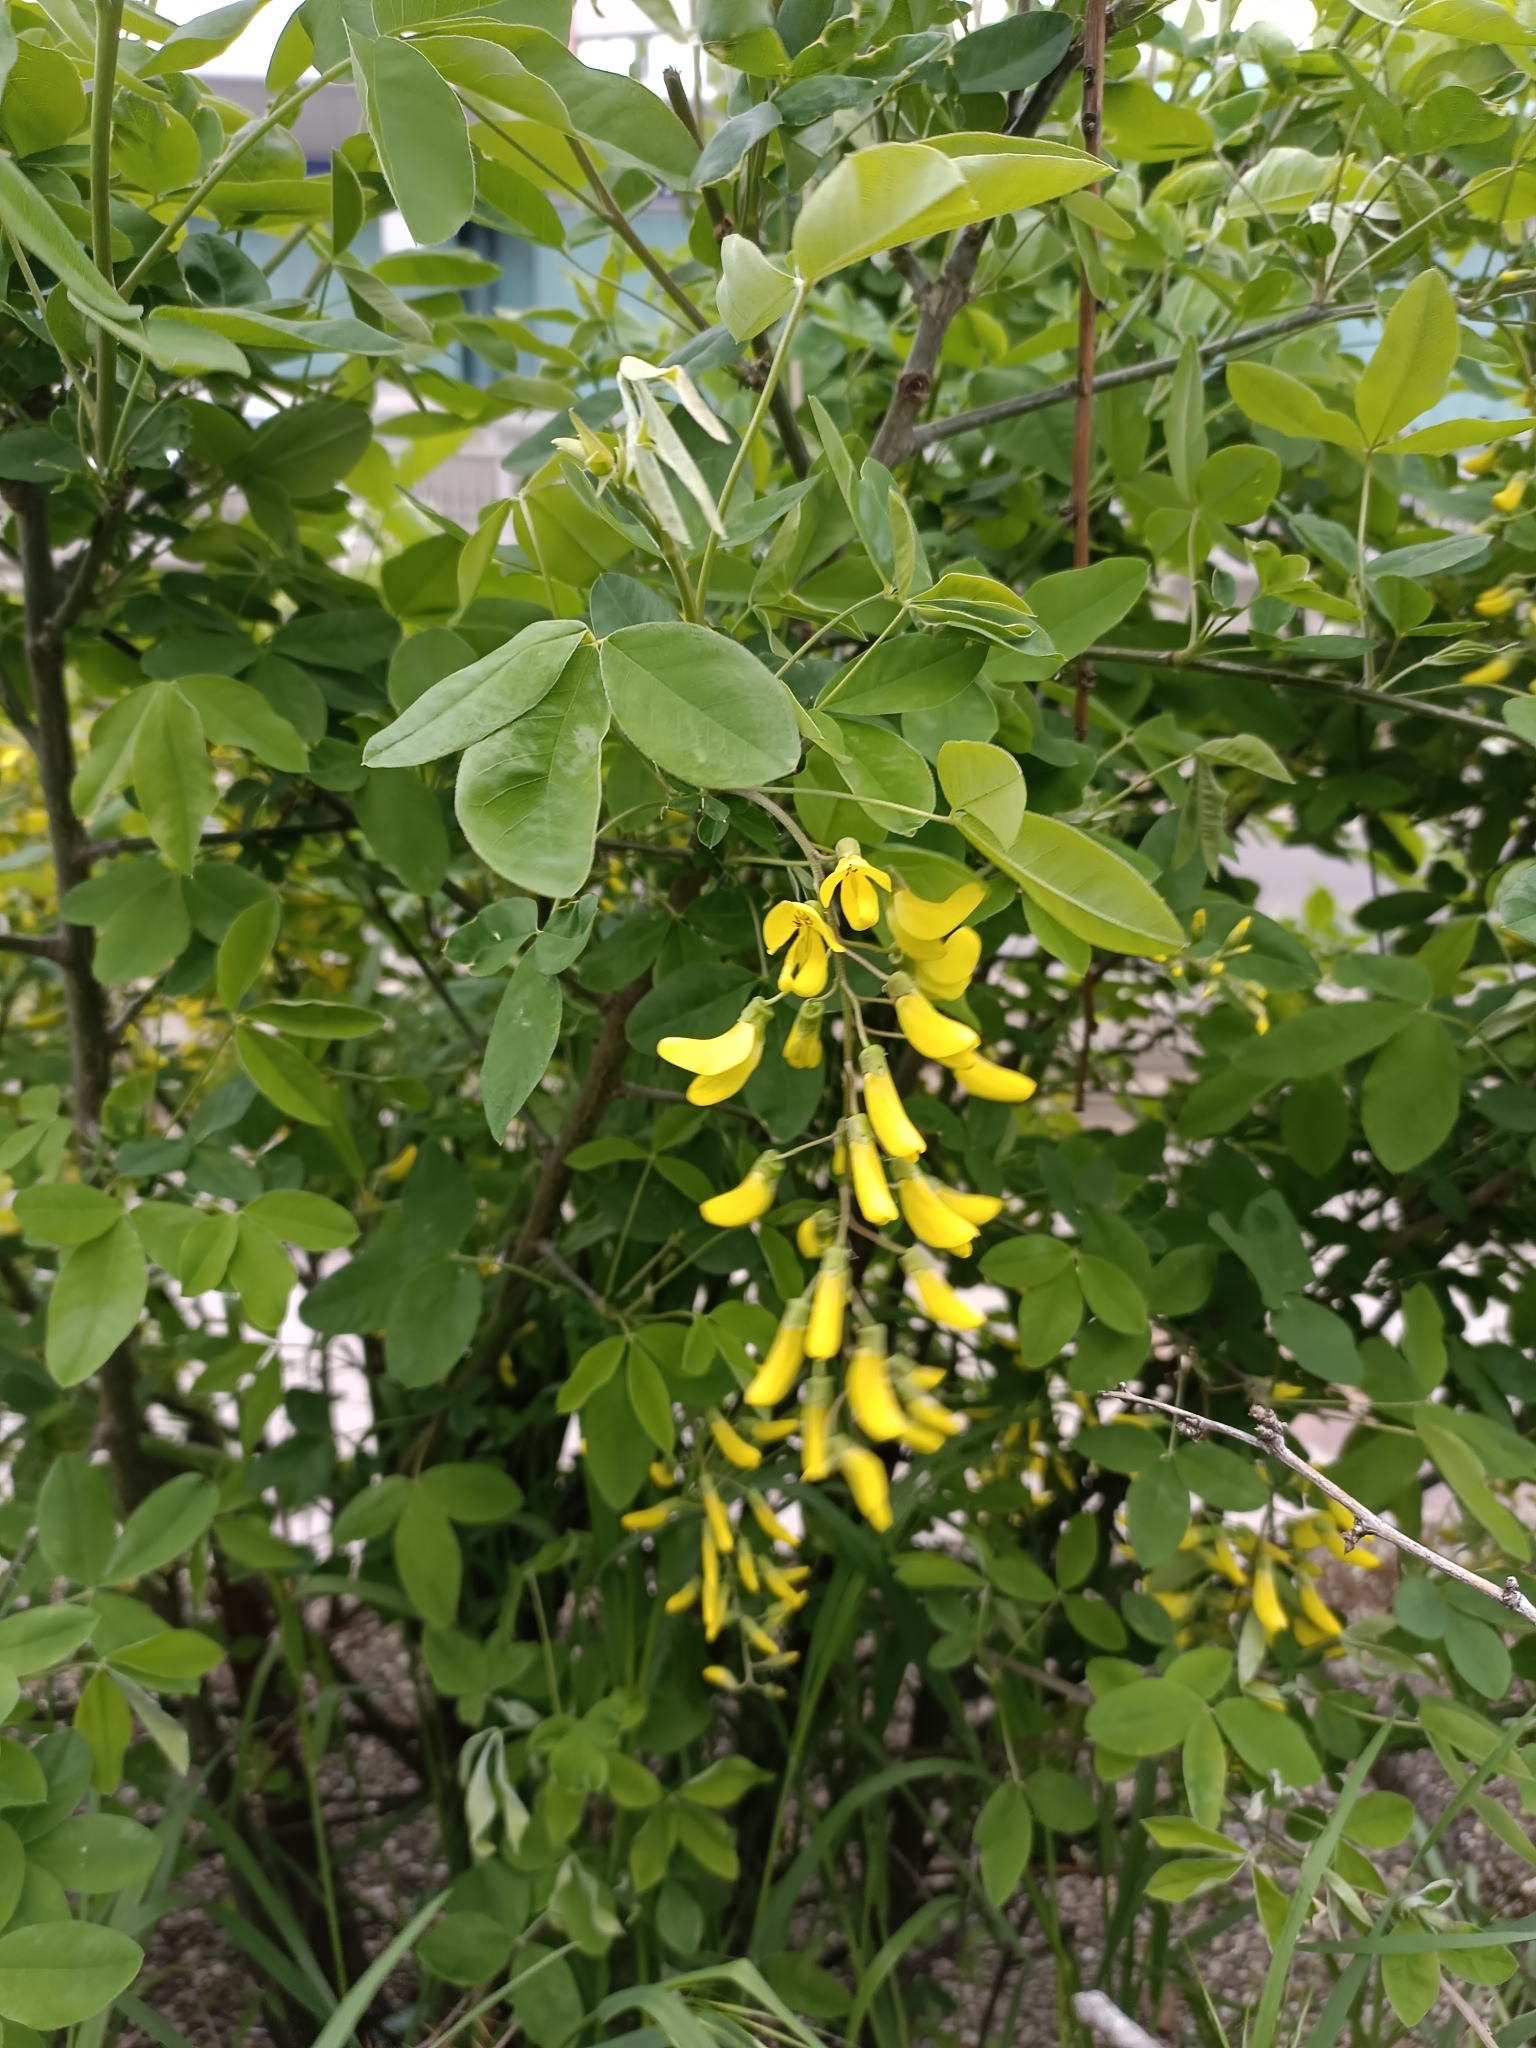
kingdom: Plantae
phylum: Tracheophyta
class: Magnoliopsida
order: Fabales
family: Fabaceae
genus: Laburnum
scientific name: Laburnum anagyroides
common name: Laburnum
